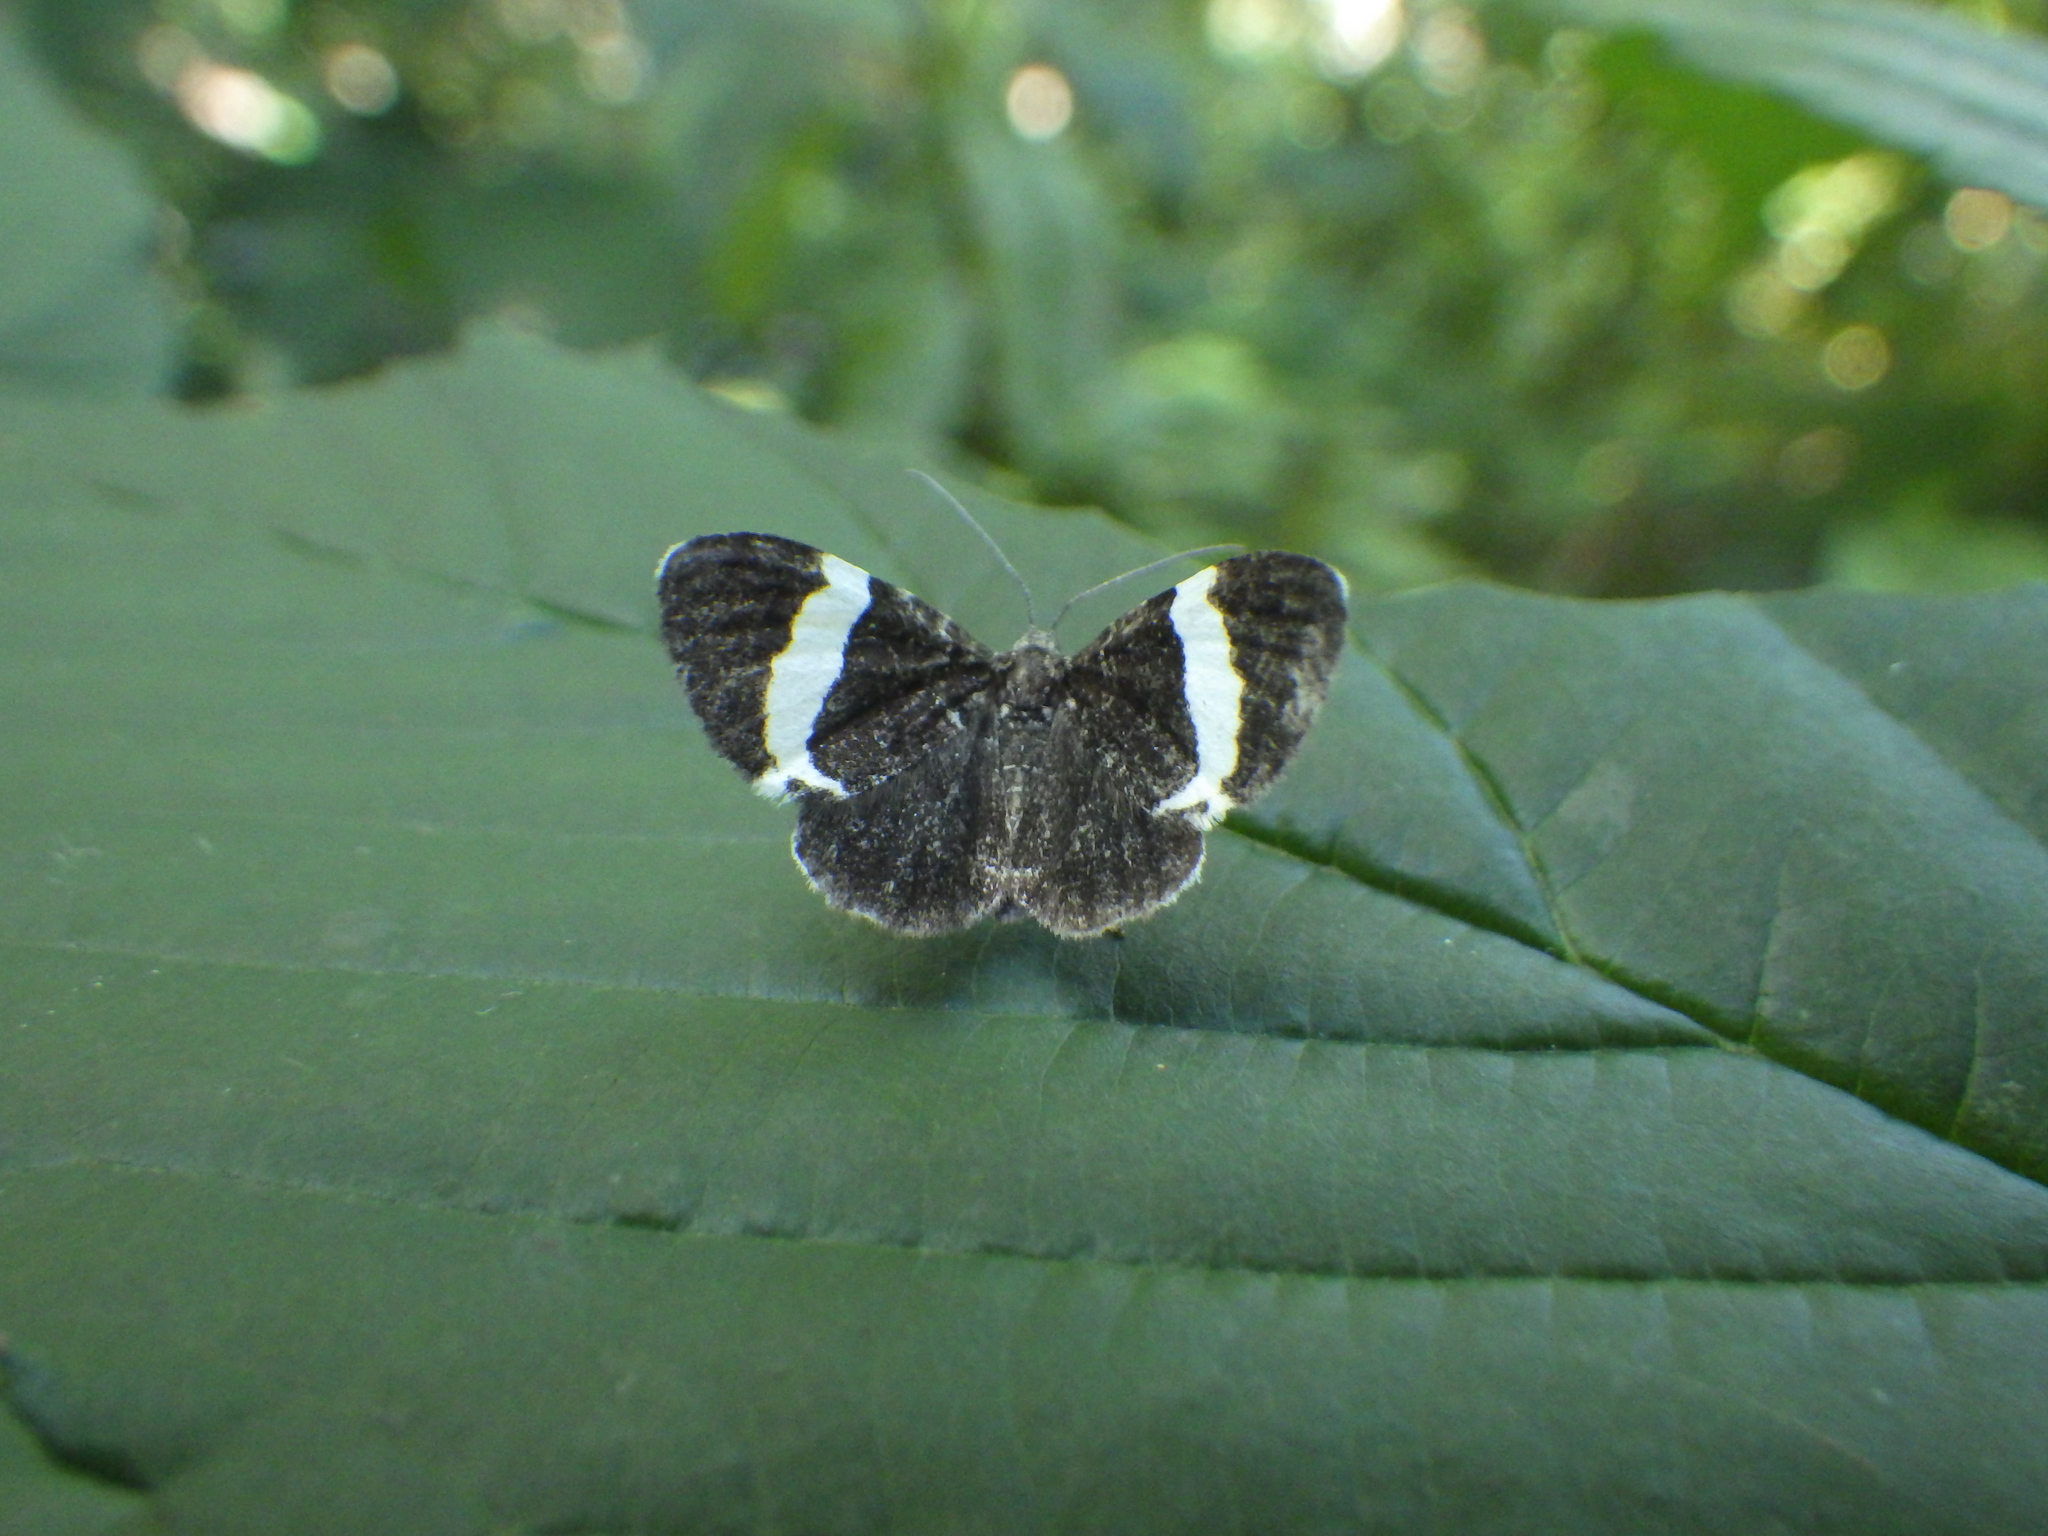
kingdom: Animalia
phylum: Arthropoda
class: Insecta
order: Lepidoptera
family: Geometridae
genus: Trichodezia
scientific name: Trichodezia albovittata
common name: White striped black
